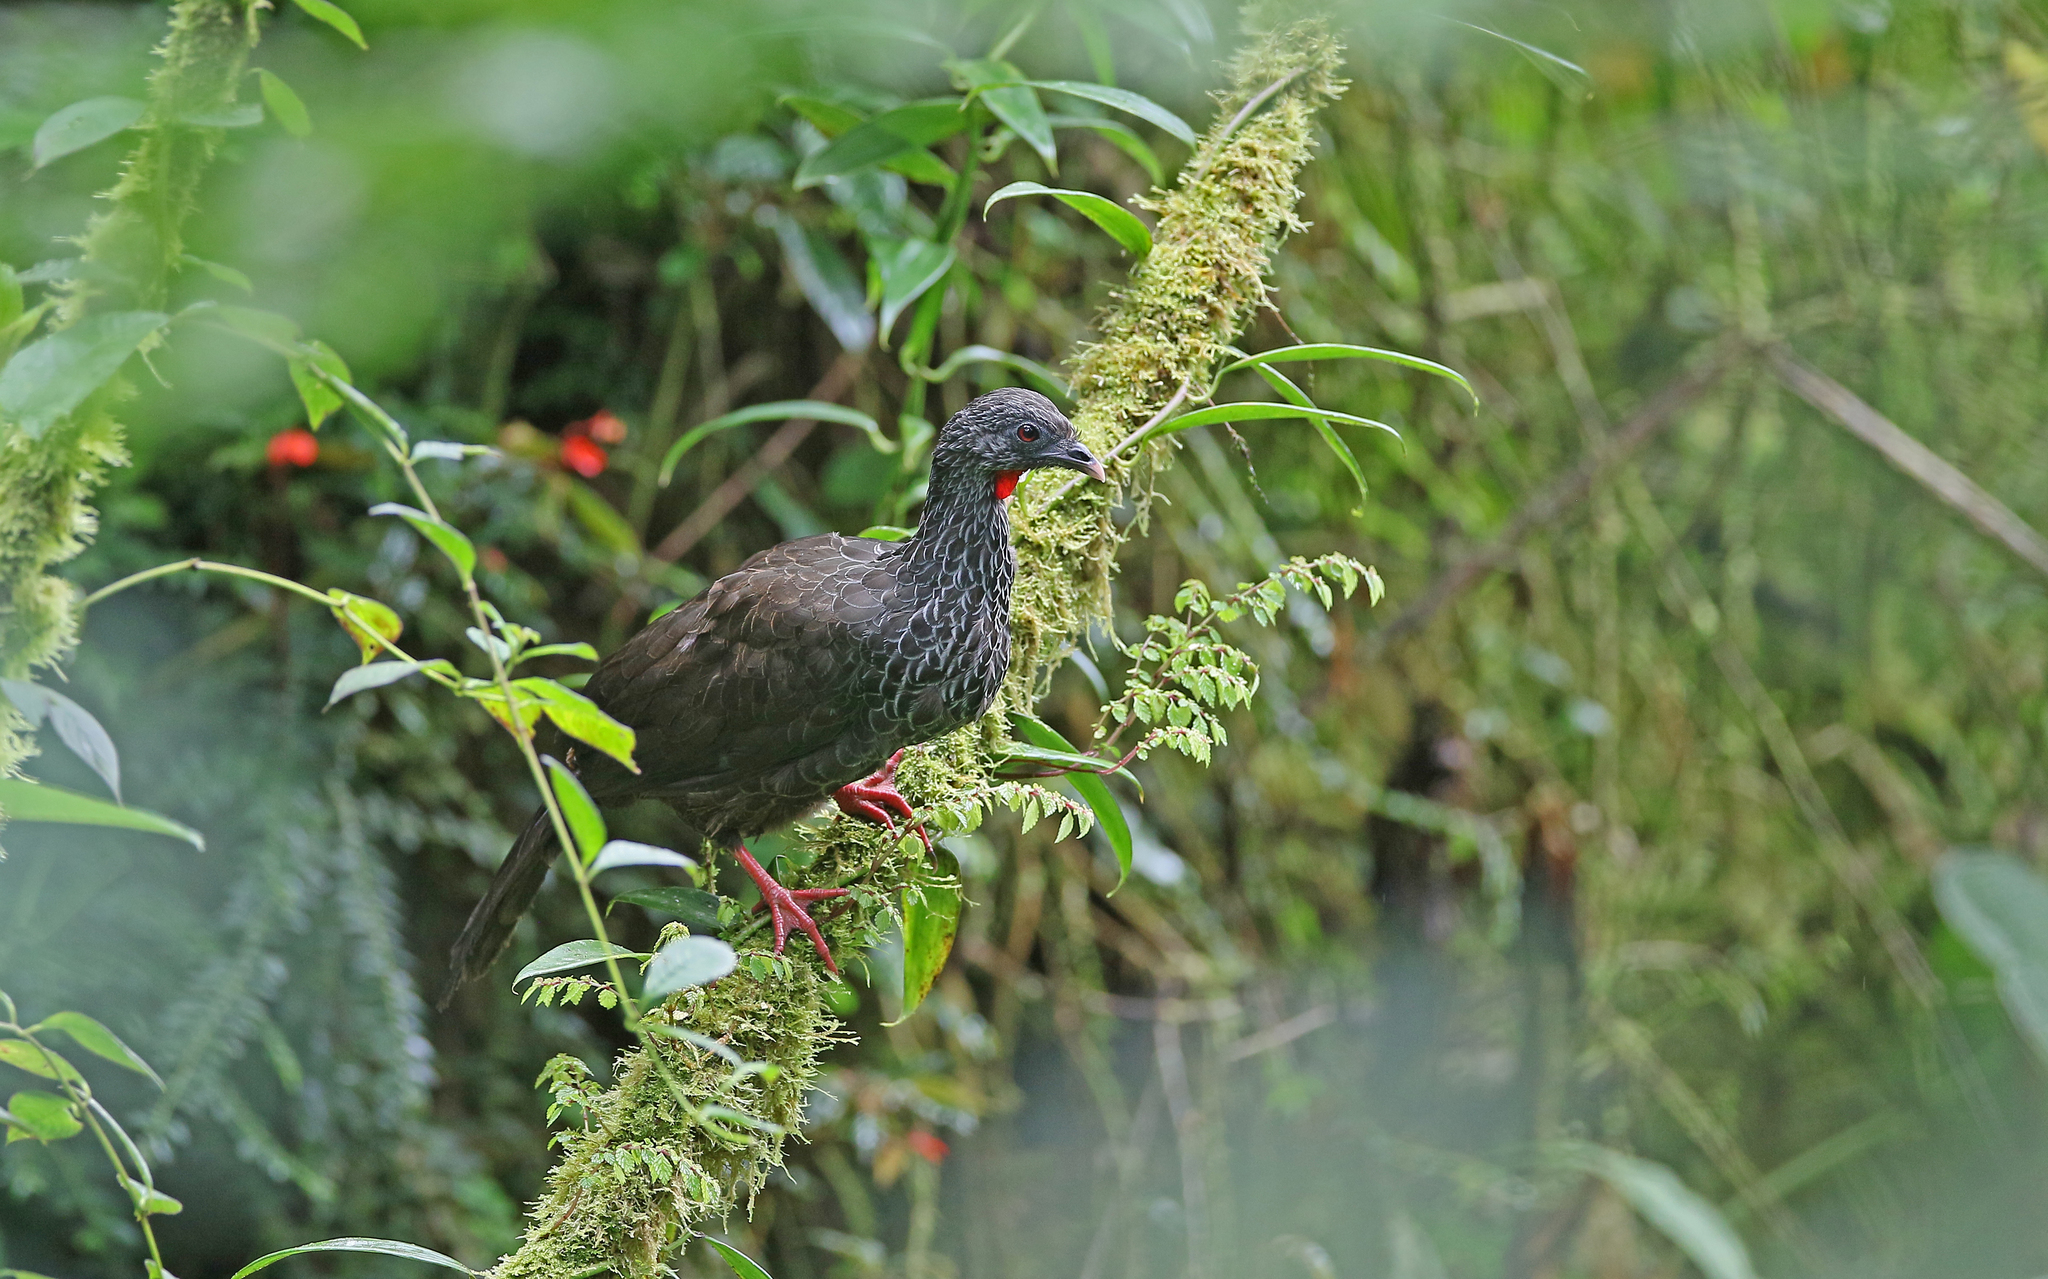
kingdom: Animalia
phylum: Chordata
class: Aves
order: Galliformes
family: Cracidae
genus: Penelope
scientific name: Penelope montagnii
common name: Andean guan
